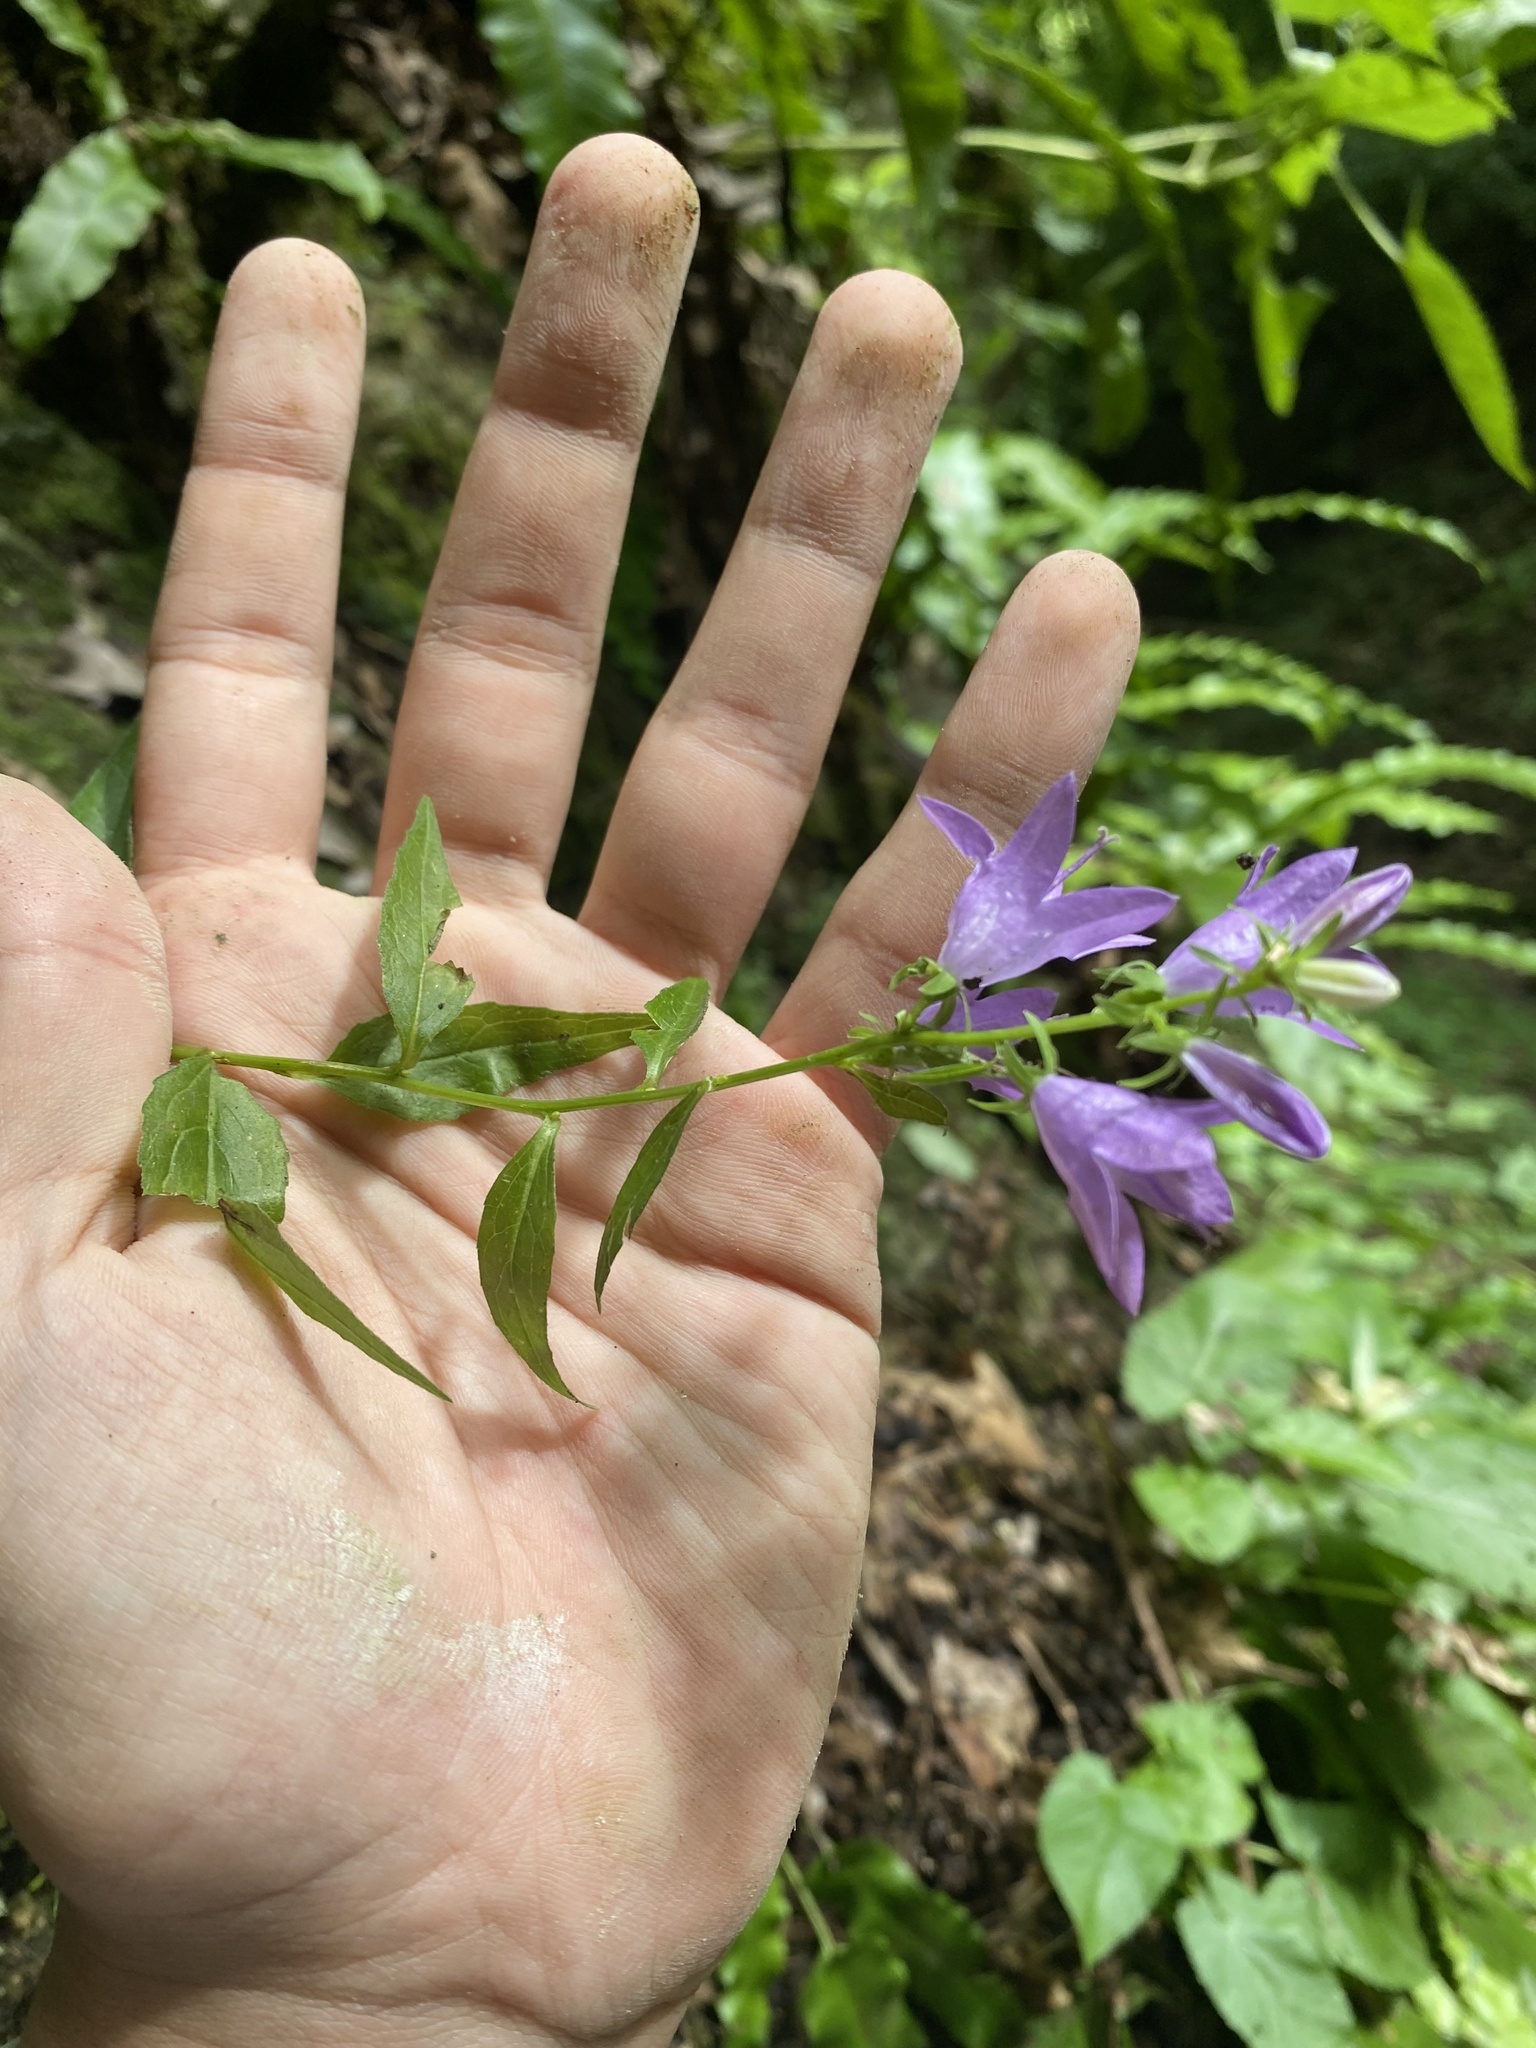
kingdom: Plantae
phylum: Tracheophyta
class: Magnoliopsida
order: Asterales
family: Campanulaceae
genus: Campanula
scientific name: Campanula rapunculoides
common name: Creeping bellflower
